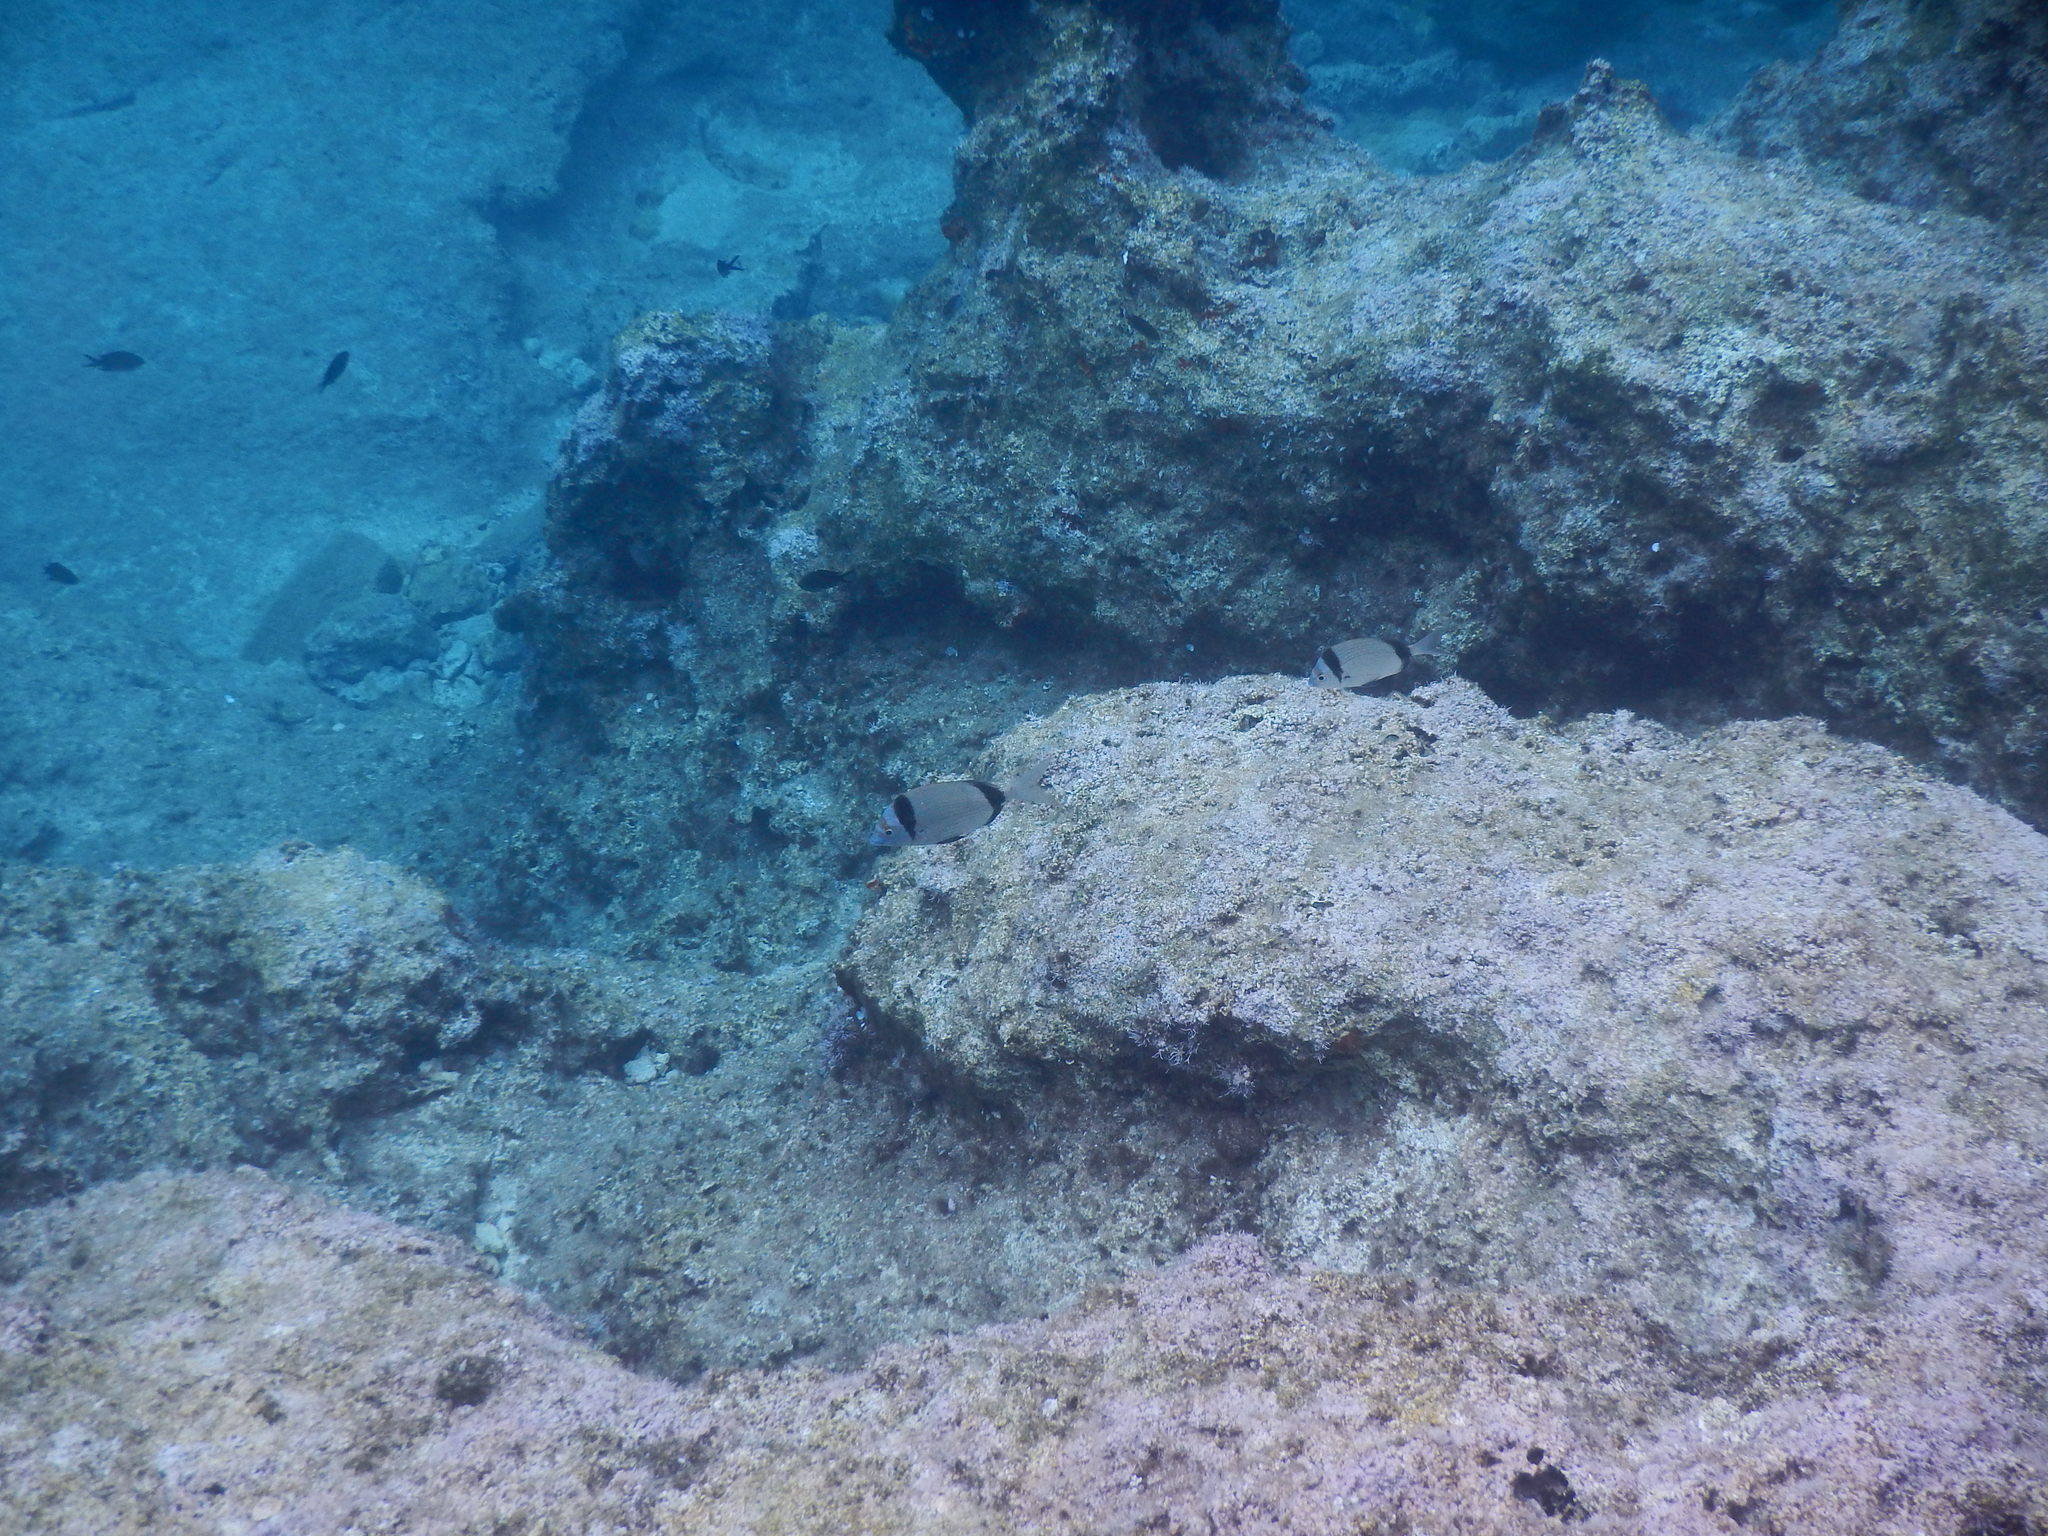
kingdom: Animalia
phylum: Chordata
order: Perciformes
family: Sparidae
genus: Diplodus
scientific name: Diplodus vulgaris
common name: Common two-banded seabream
